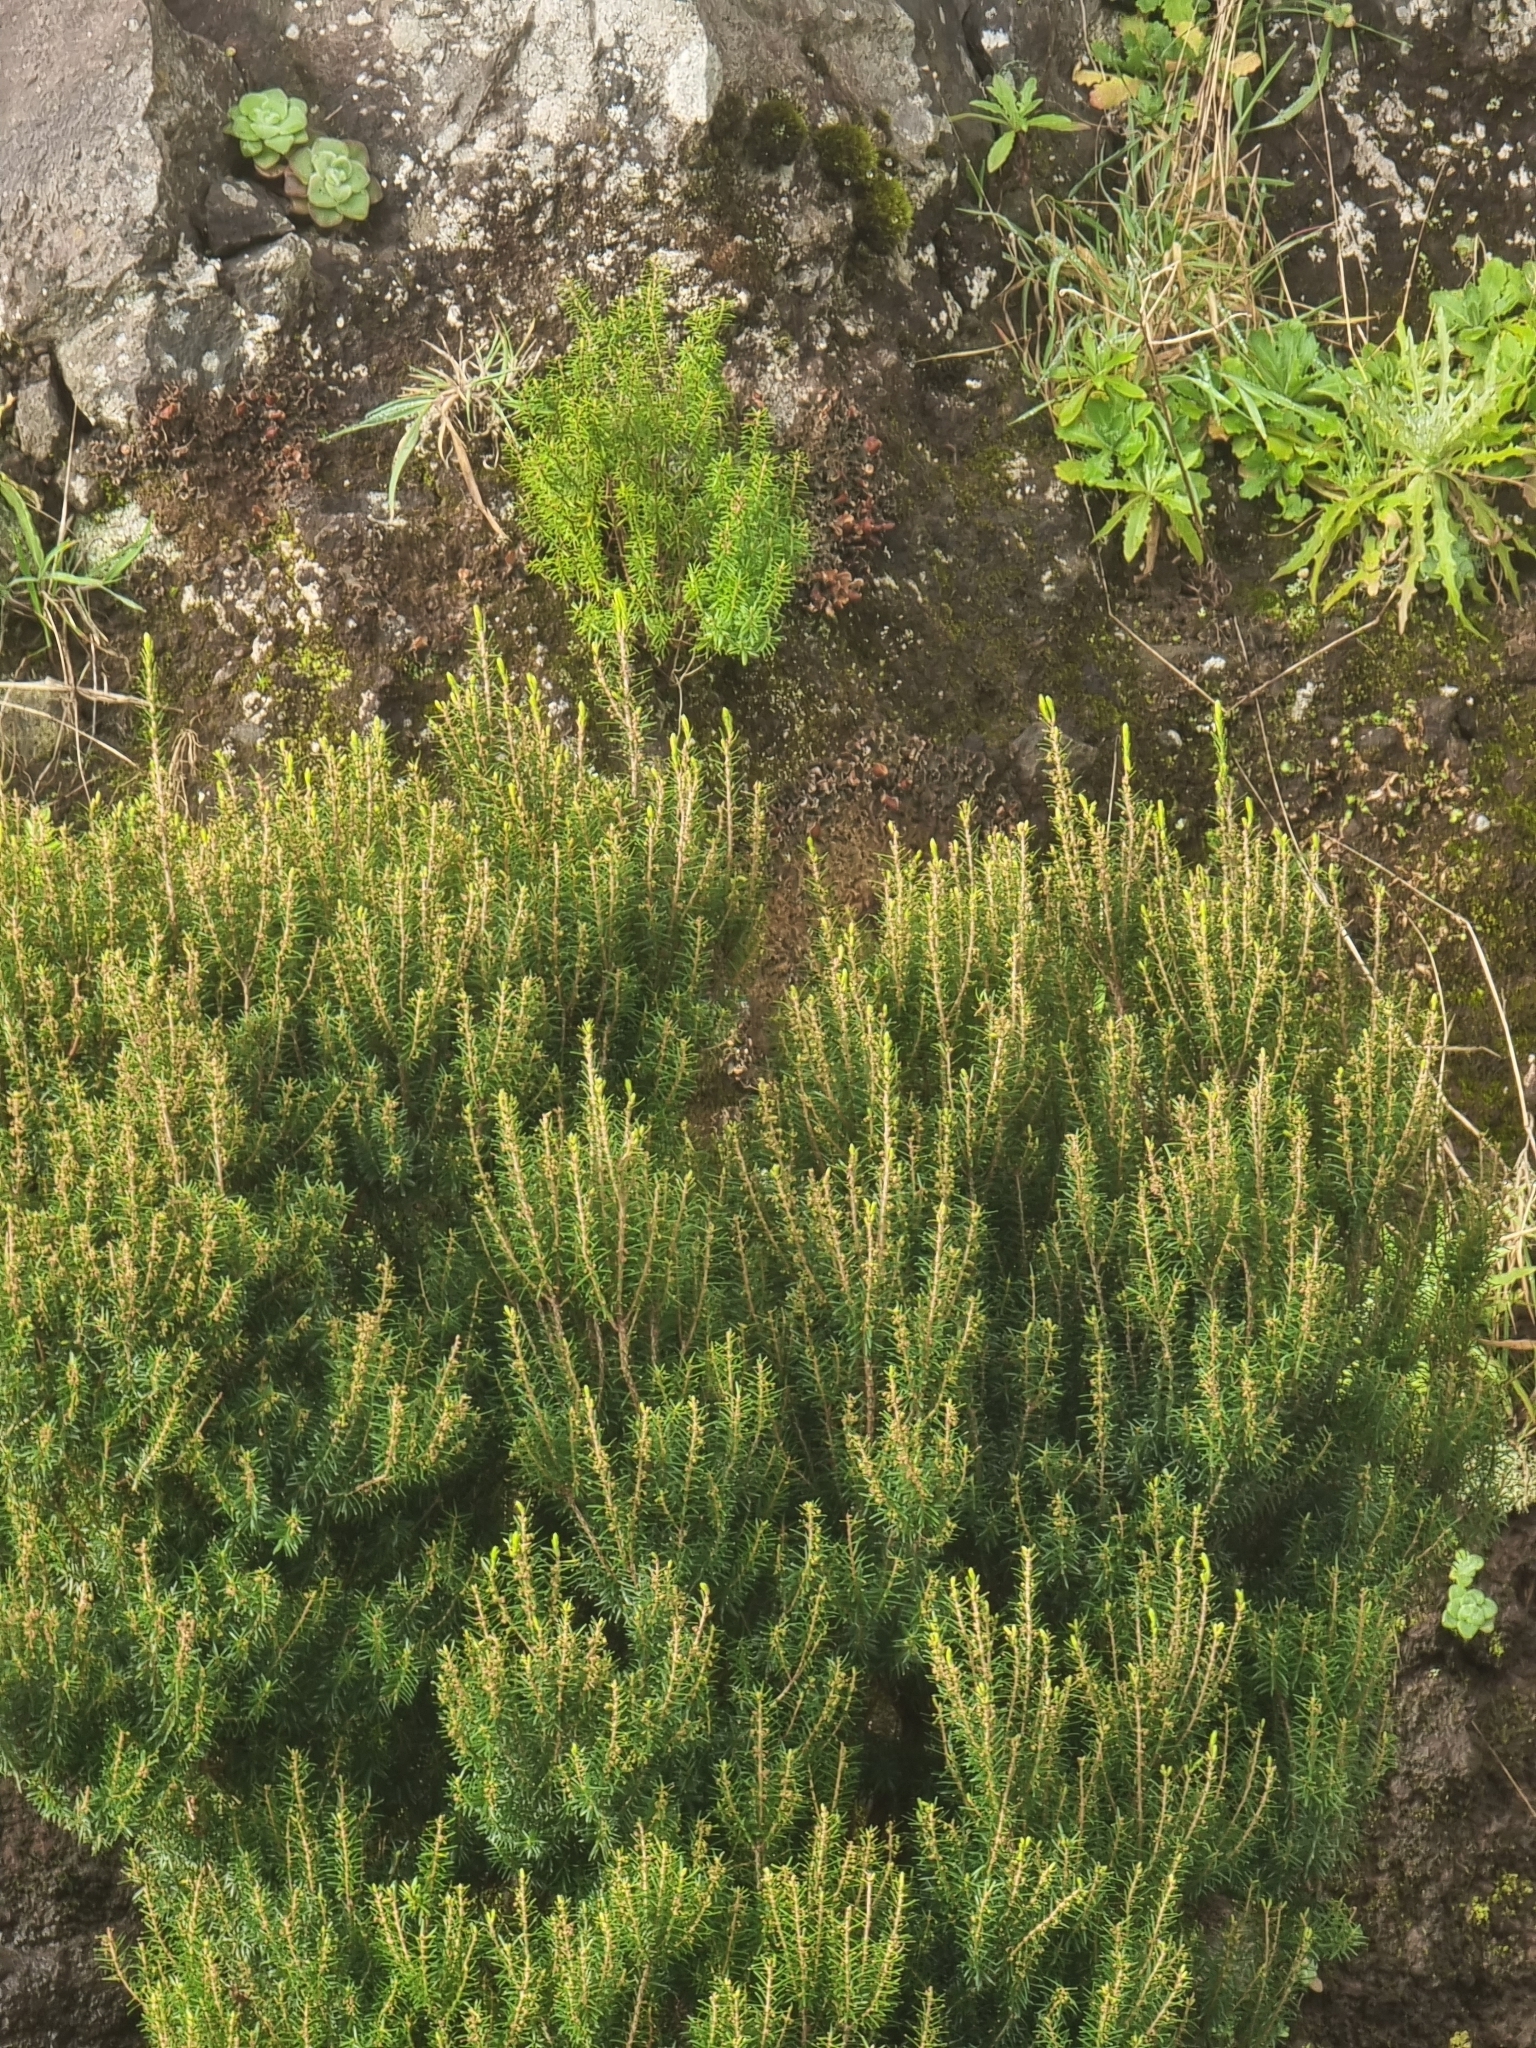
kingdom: Plantae
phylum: Tracheophyta
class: Magnoliopsida
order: Ericales
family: Ericaceae
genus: Erica
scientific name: Erica platycodon
